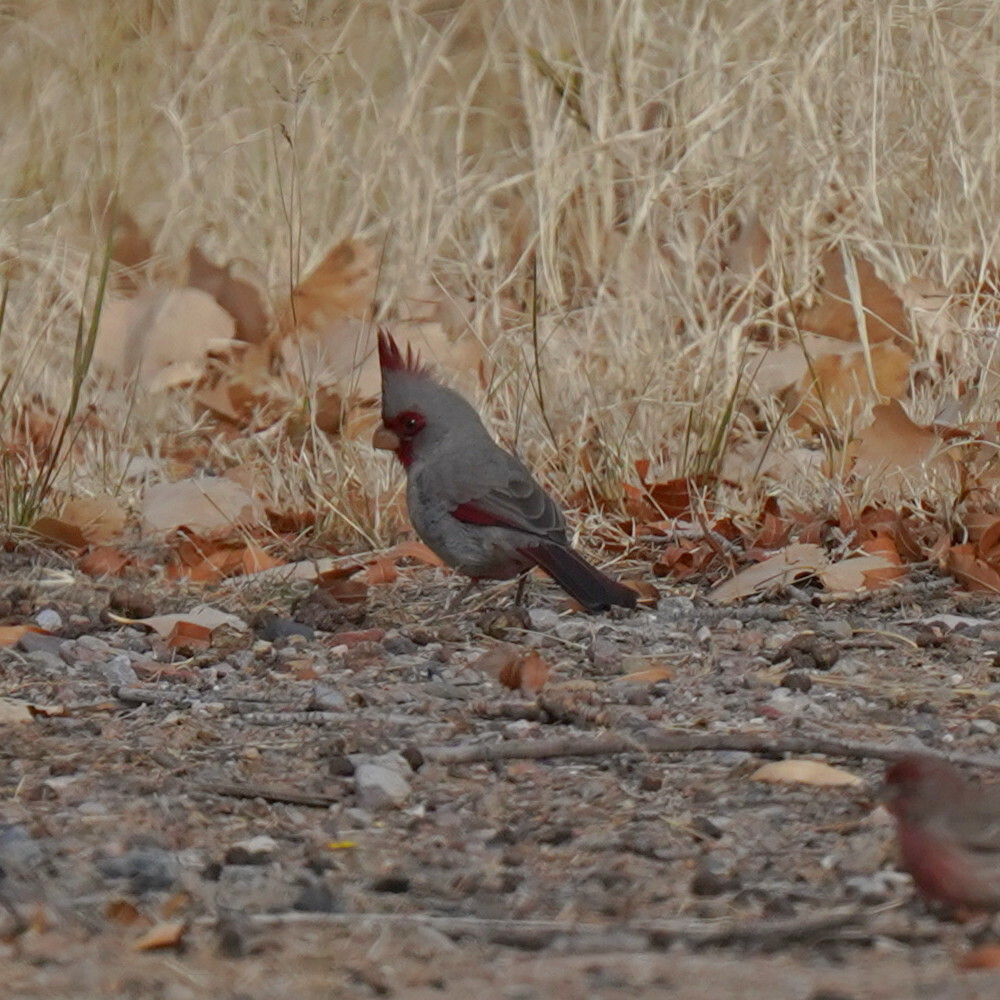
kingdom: Animalia
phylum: Chordata
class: Aves
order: Passeriformes
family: Cardinalidae
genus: Cardinalis
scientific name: Cardinalis sinuatus
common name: Pyrrhuloxia
